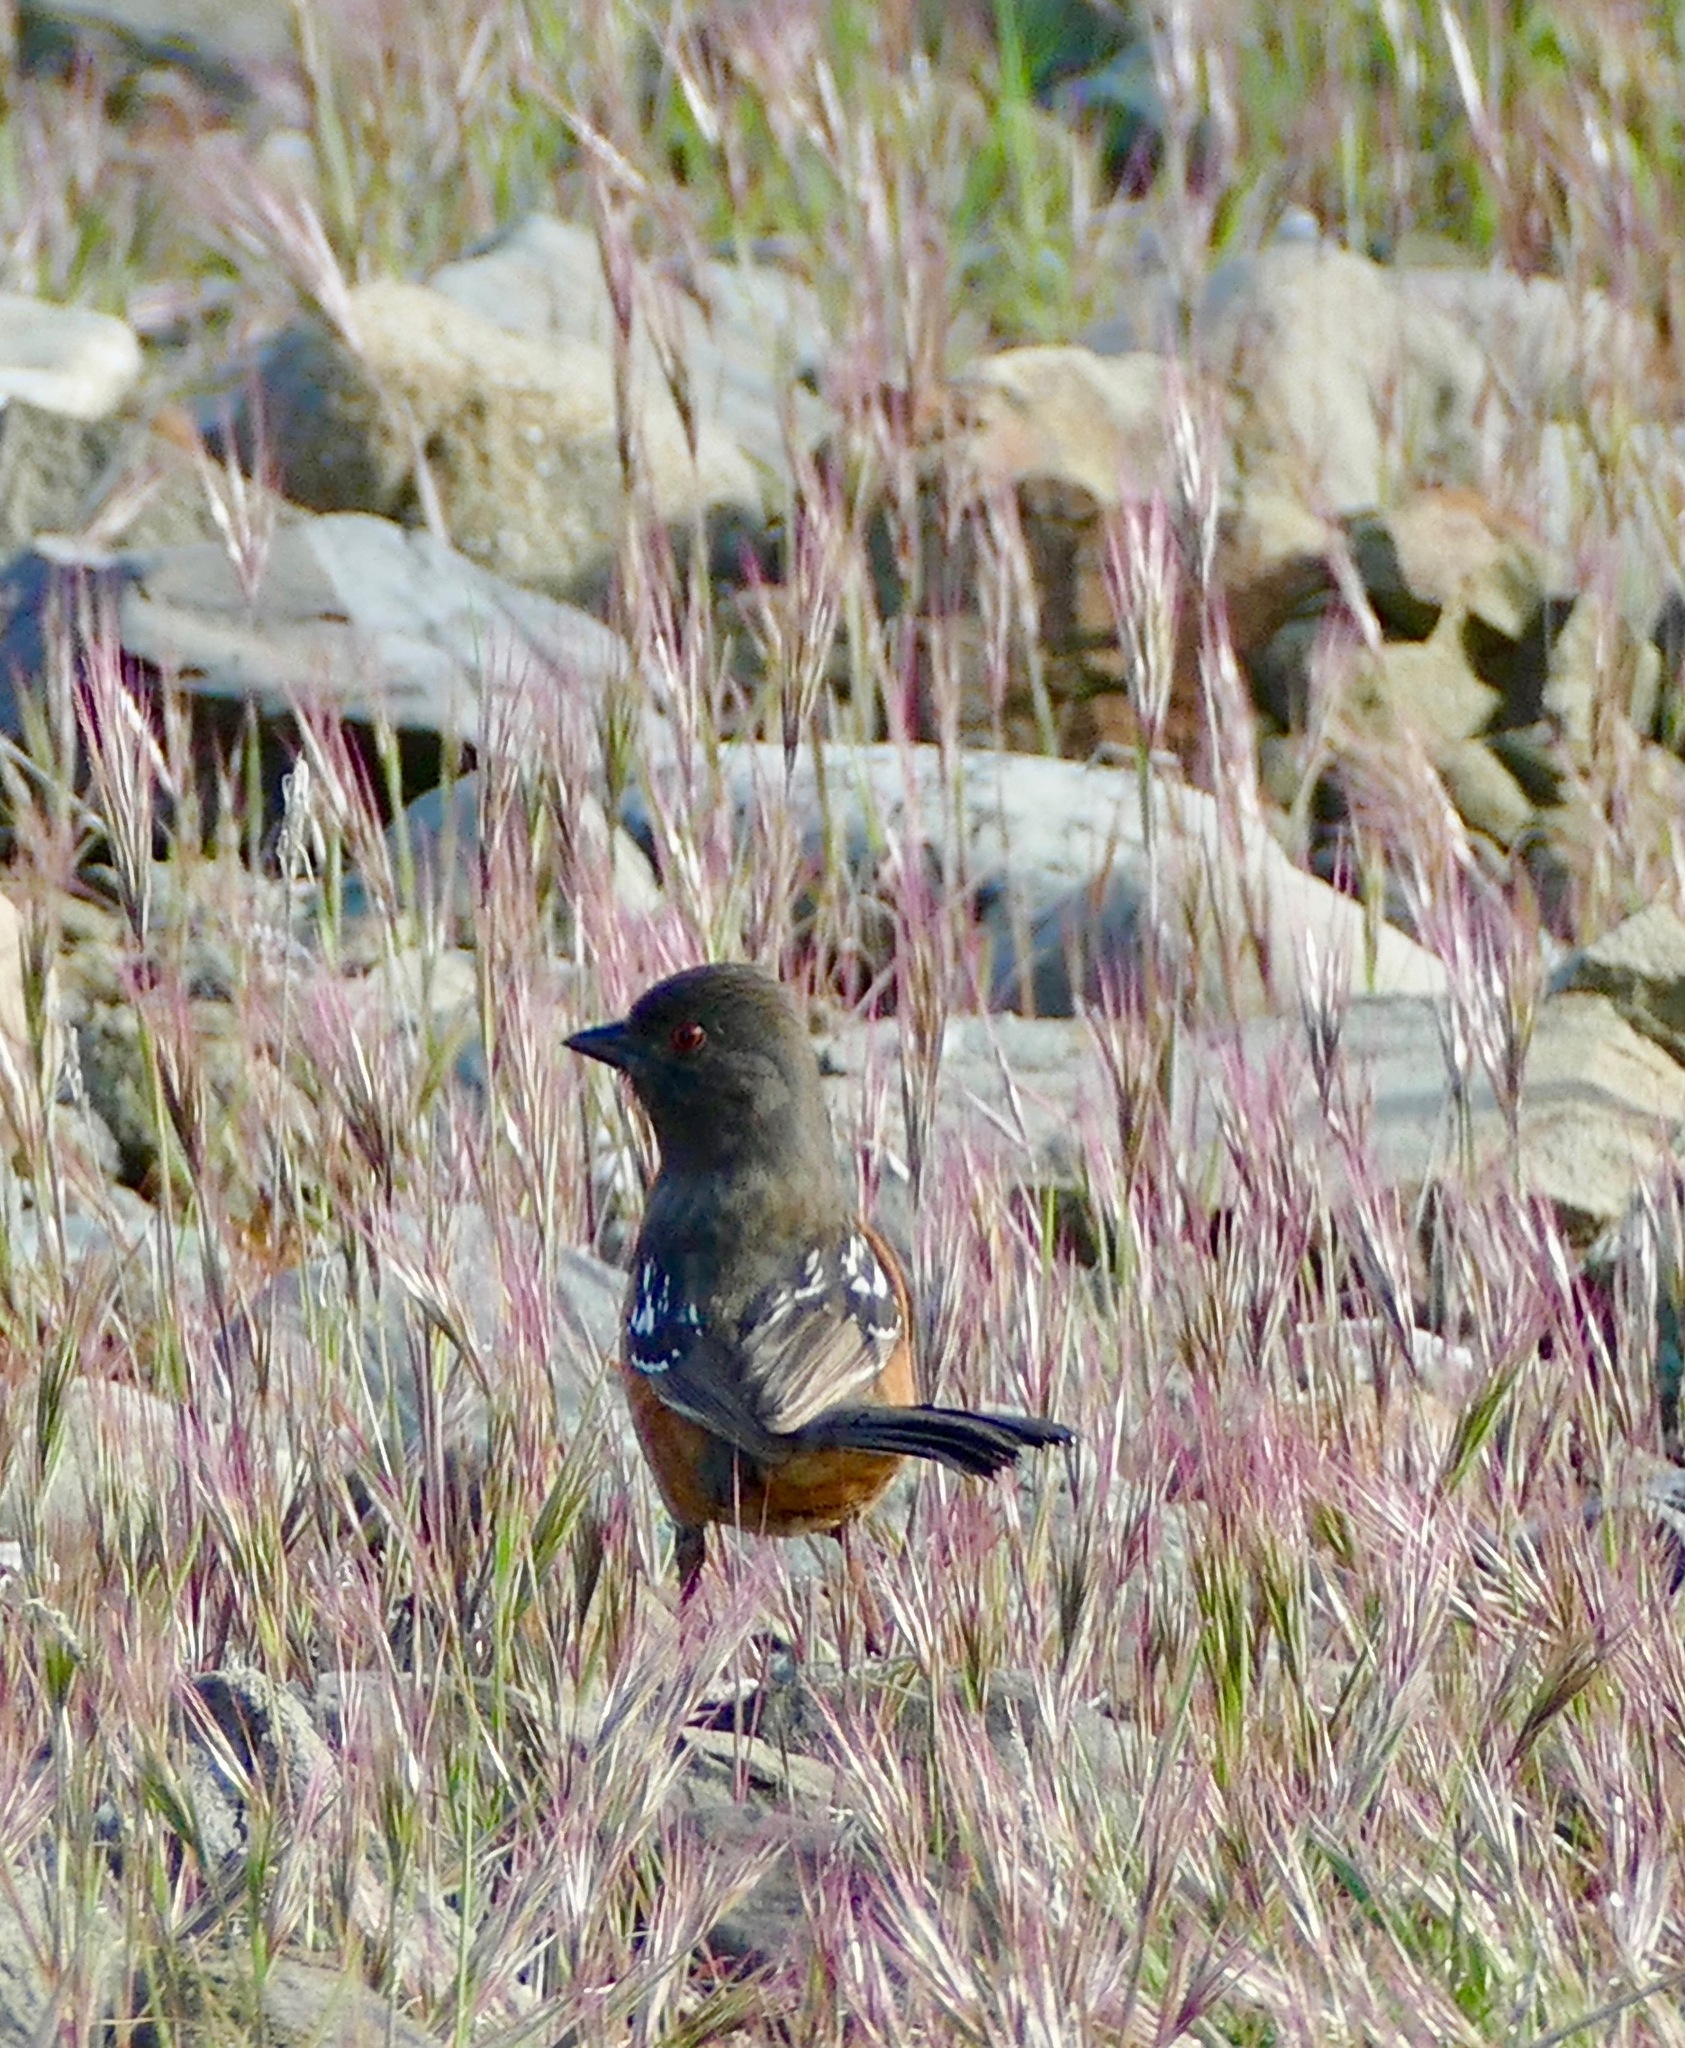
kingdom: Animalia
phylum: Chordata
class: Aves
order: Passeriformes
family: Passerellidae
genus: Pipilo
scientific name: Pipilo maculatus
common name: Spotted towhee
